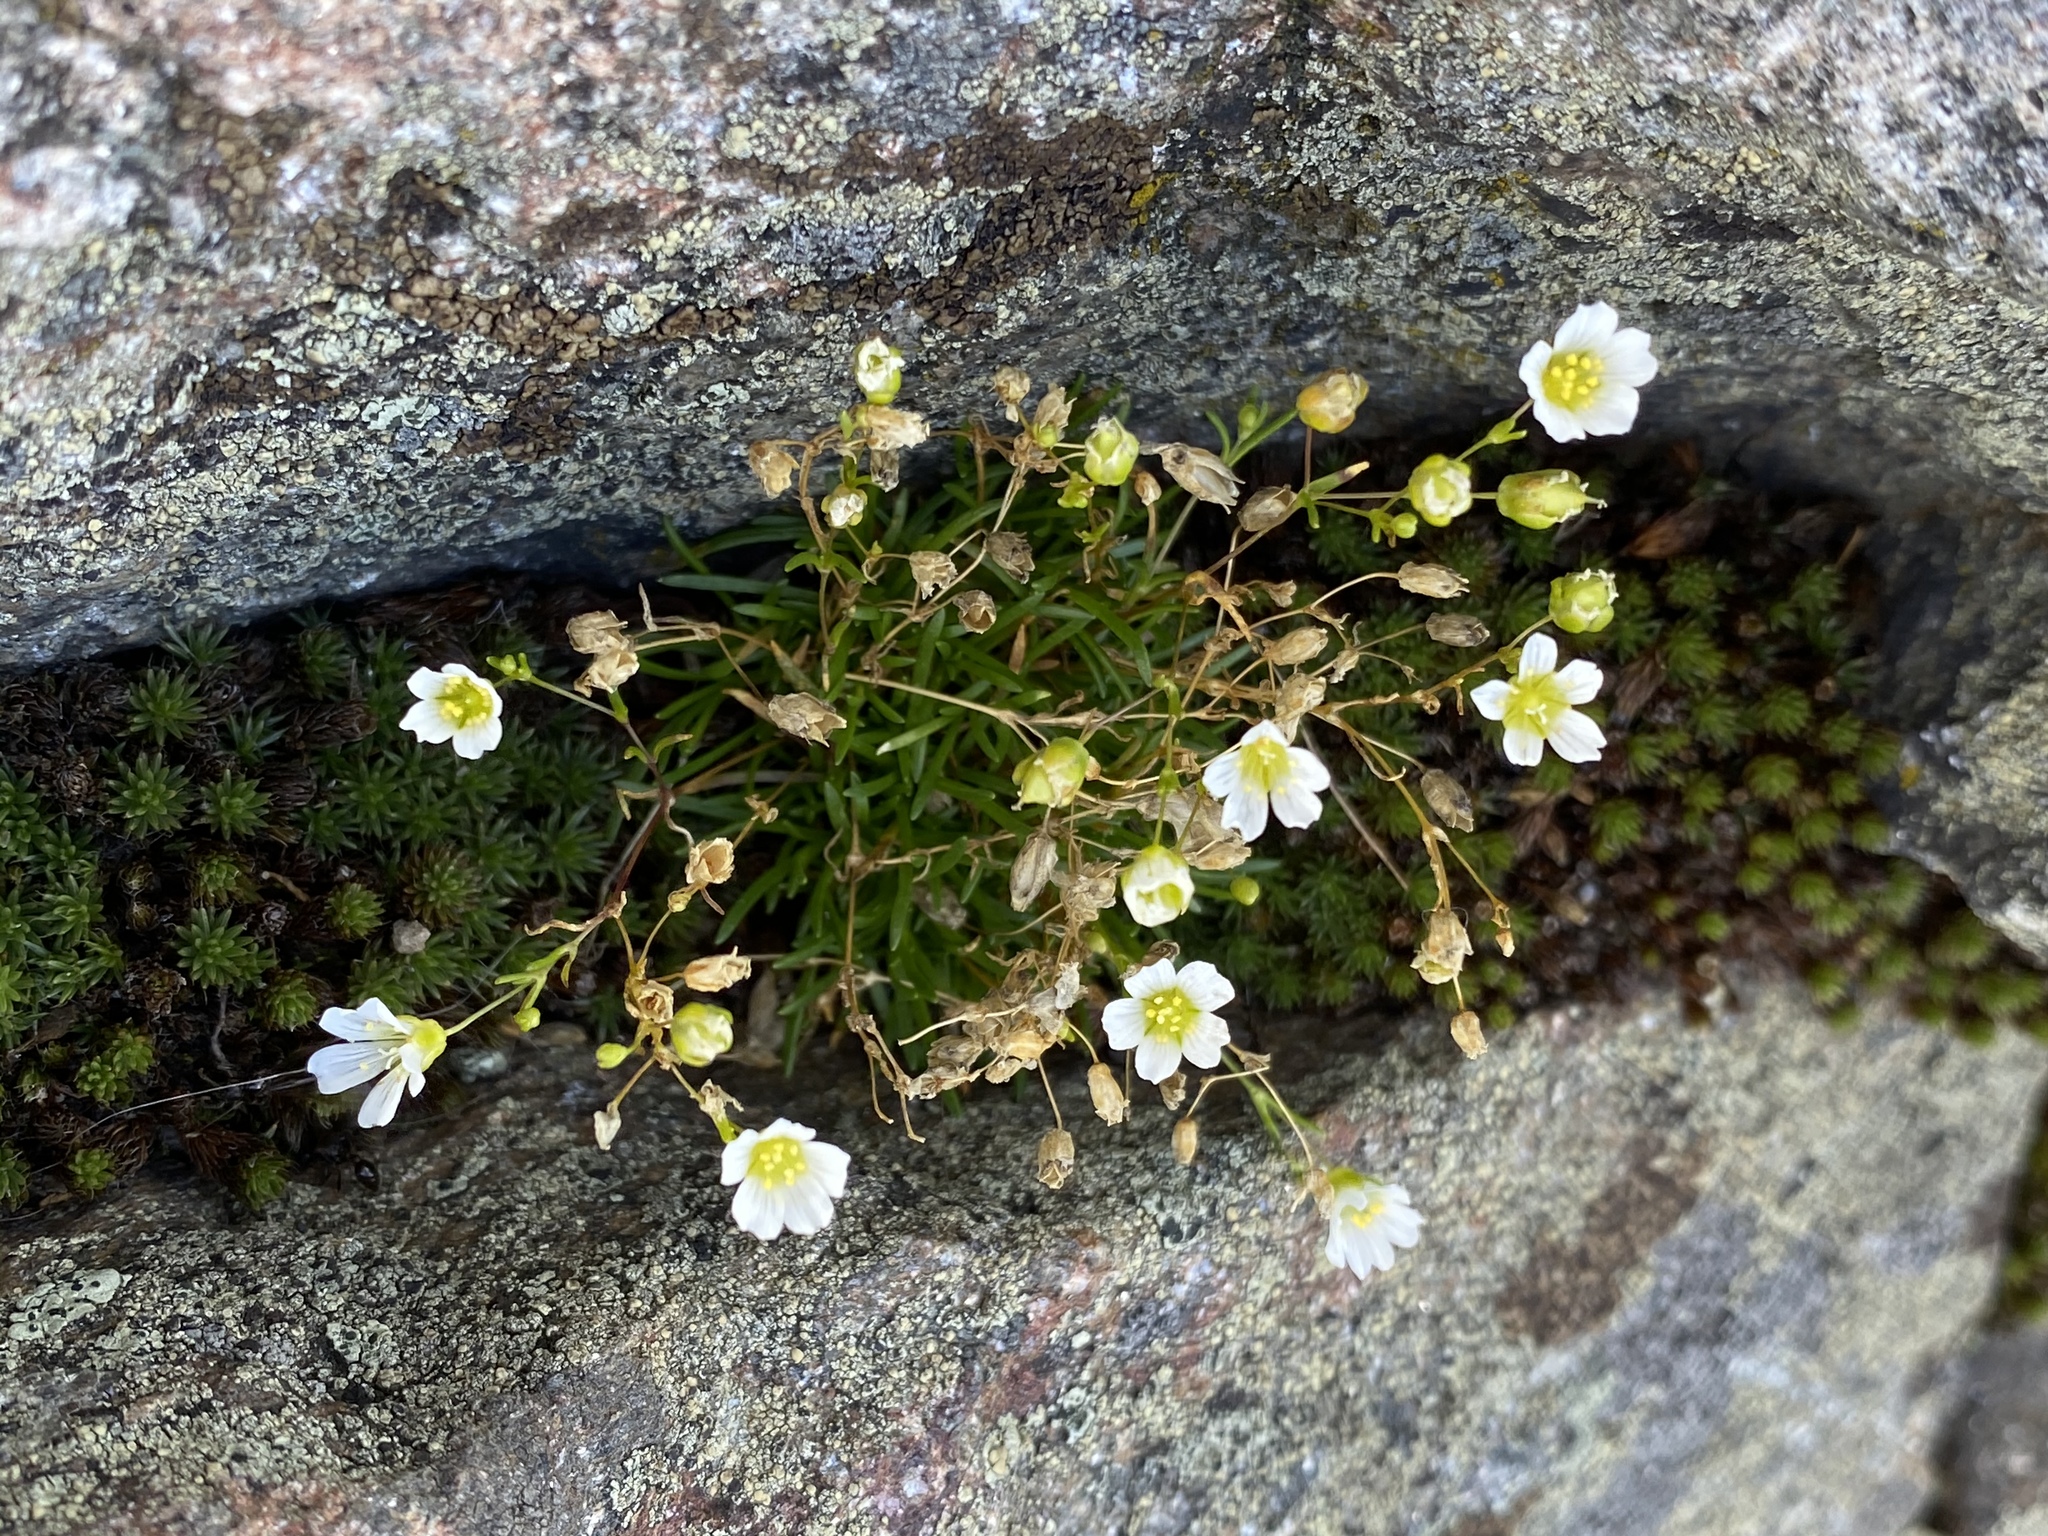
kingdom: Plantae
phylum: Tracheophyta
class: Magnoliopsida
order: Caryophyllales
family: Caryophyllaceae
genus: Geocarpon
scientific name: Geocarpon groenlandicum
